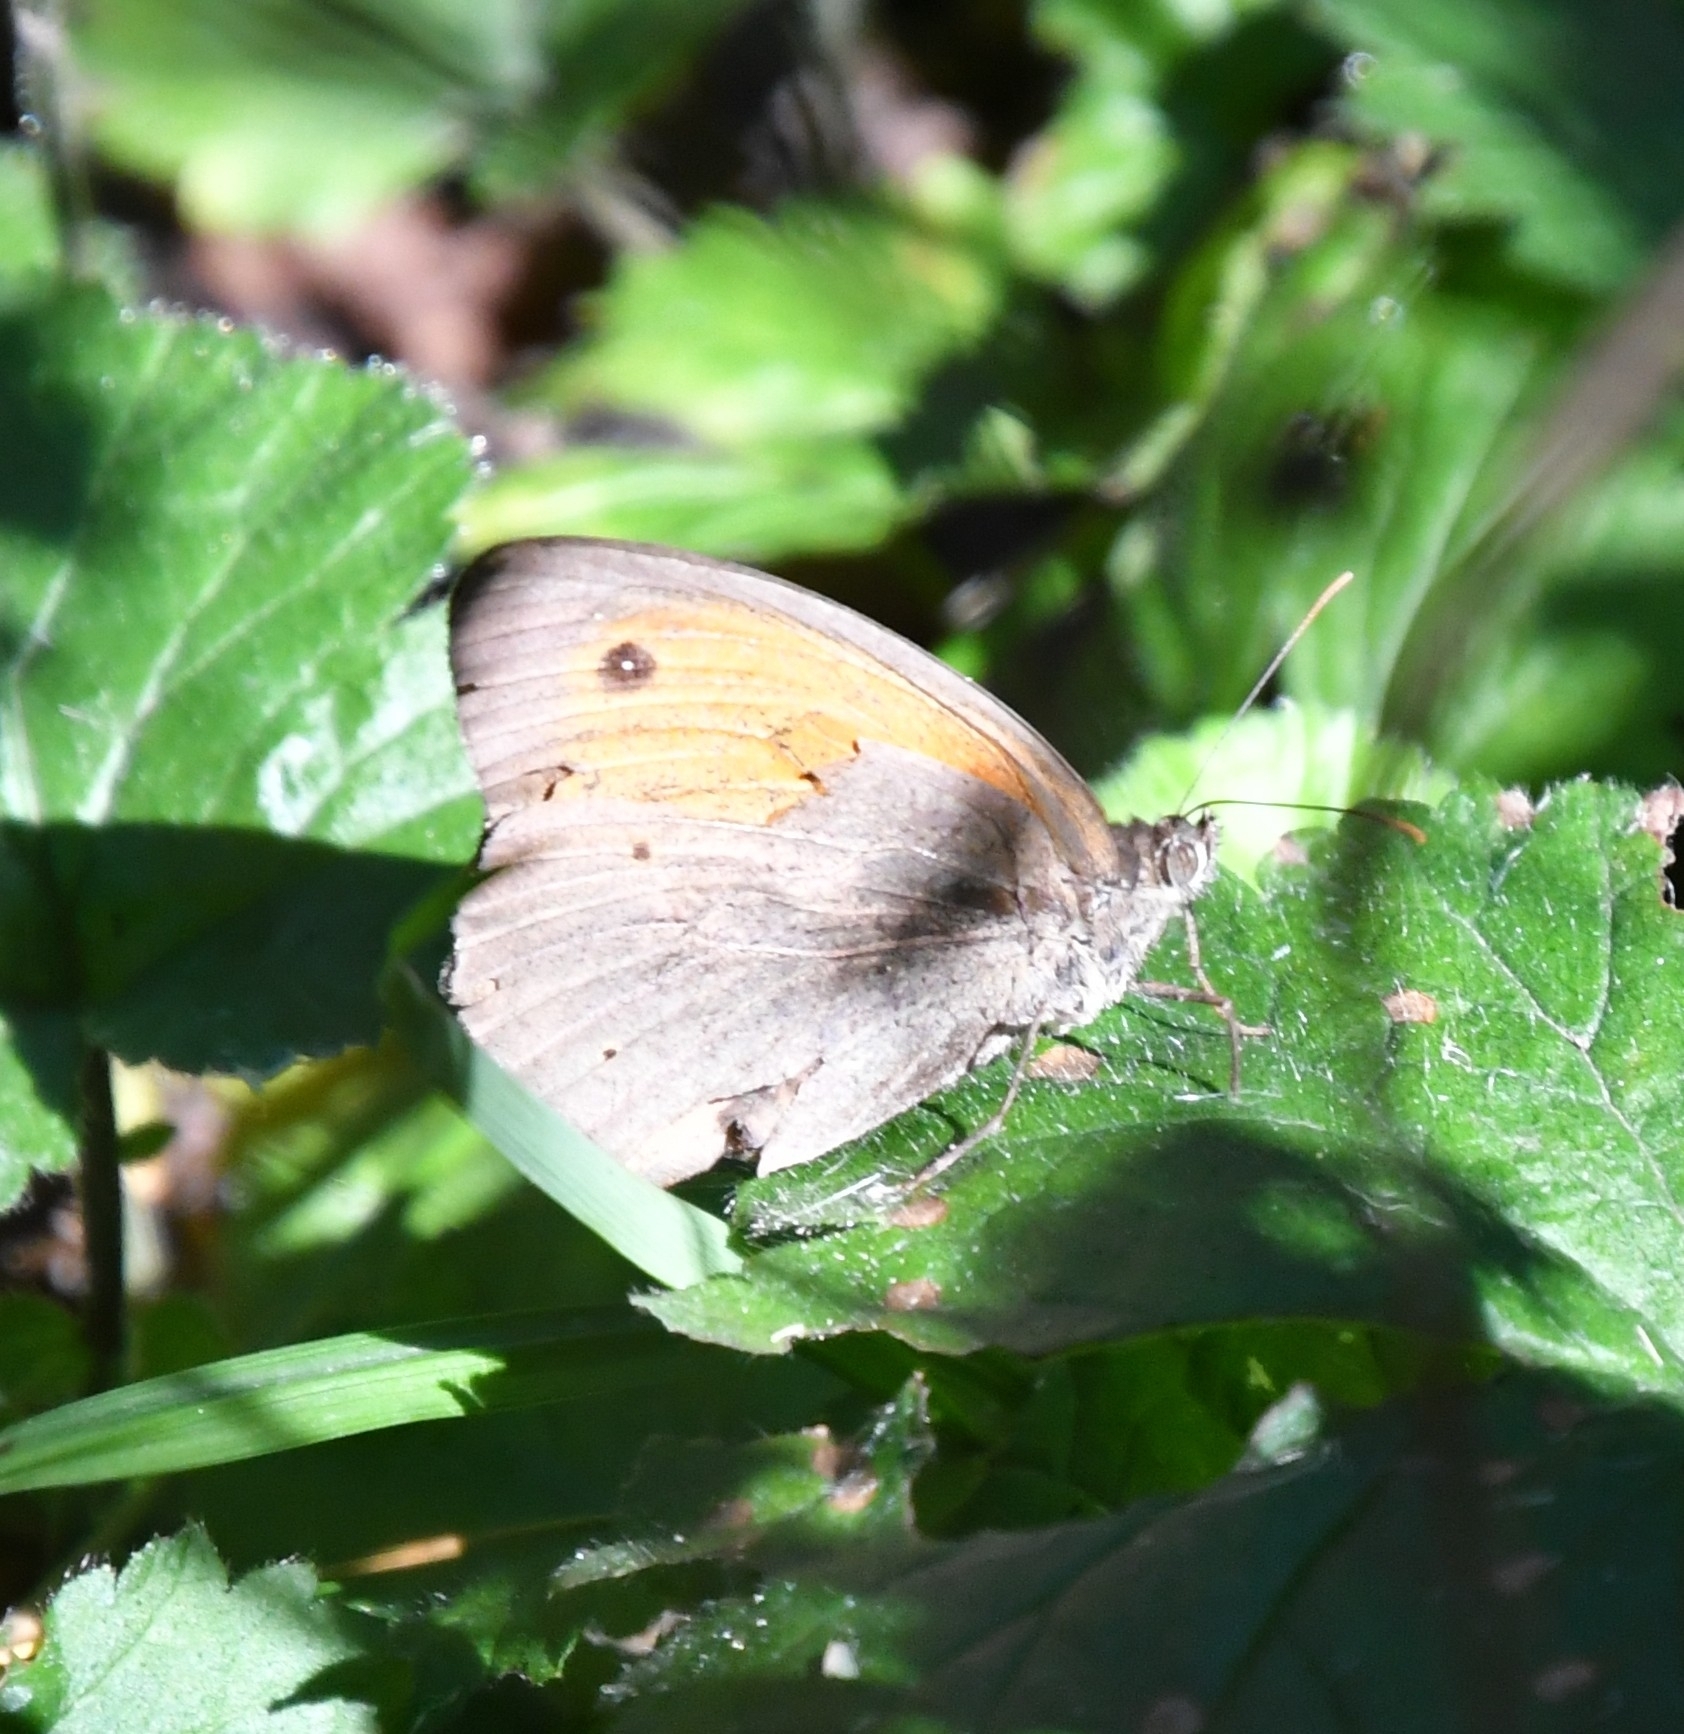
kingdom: Animalia
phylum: Arthropoda
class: Insecta
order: Lepidoptera
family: Nymphalidae
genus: Maniola
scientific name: Maniola jurtina
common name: Meadow brown
